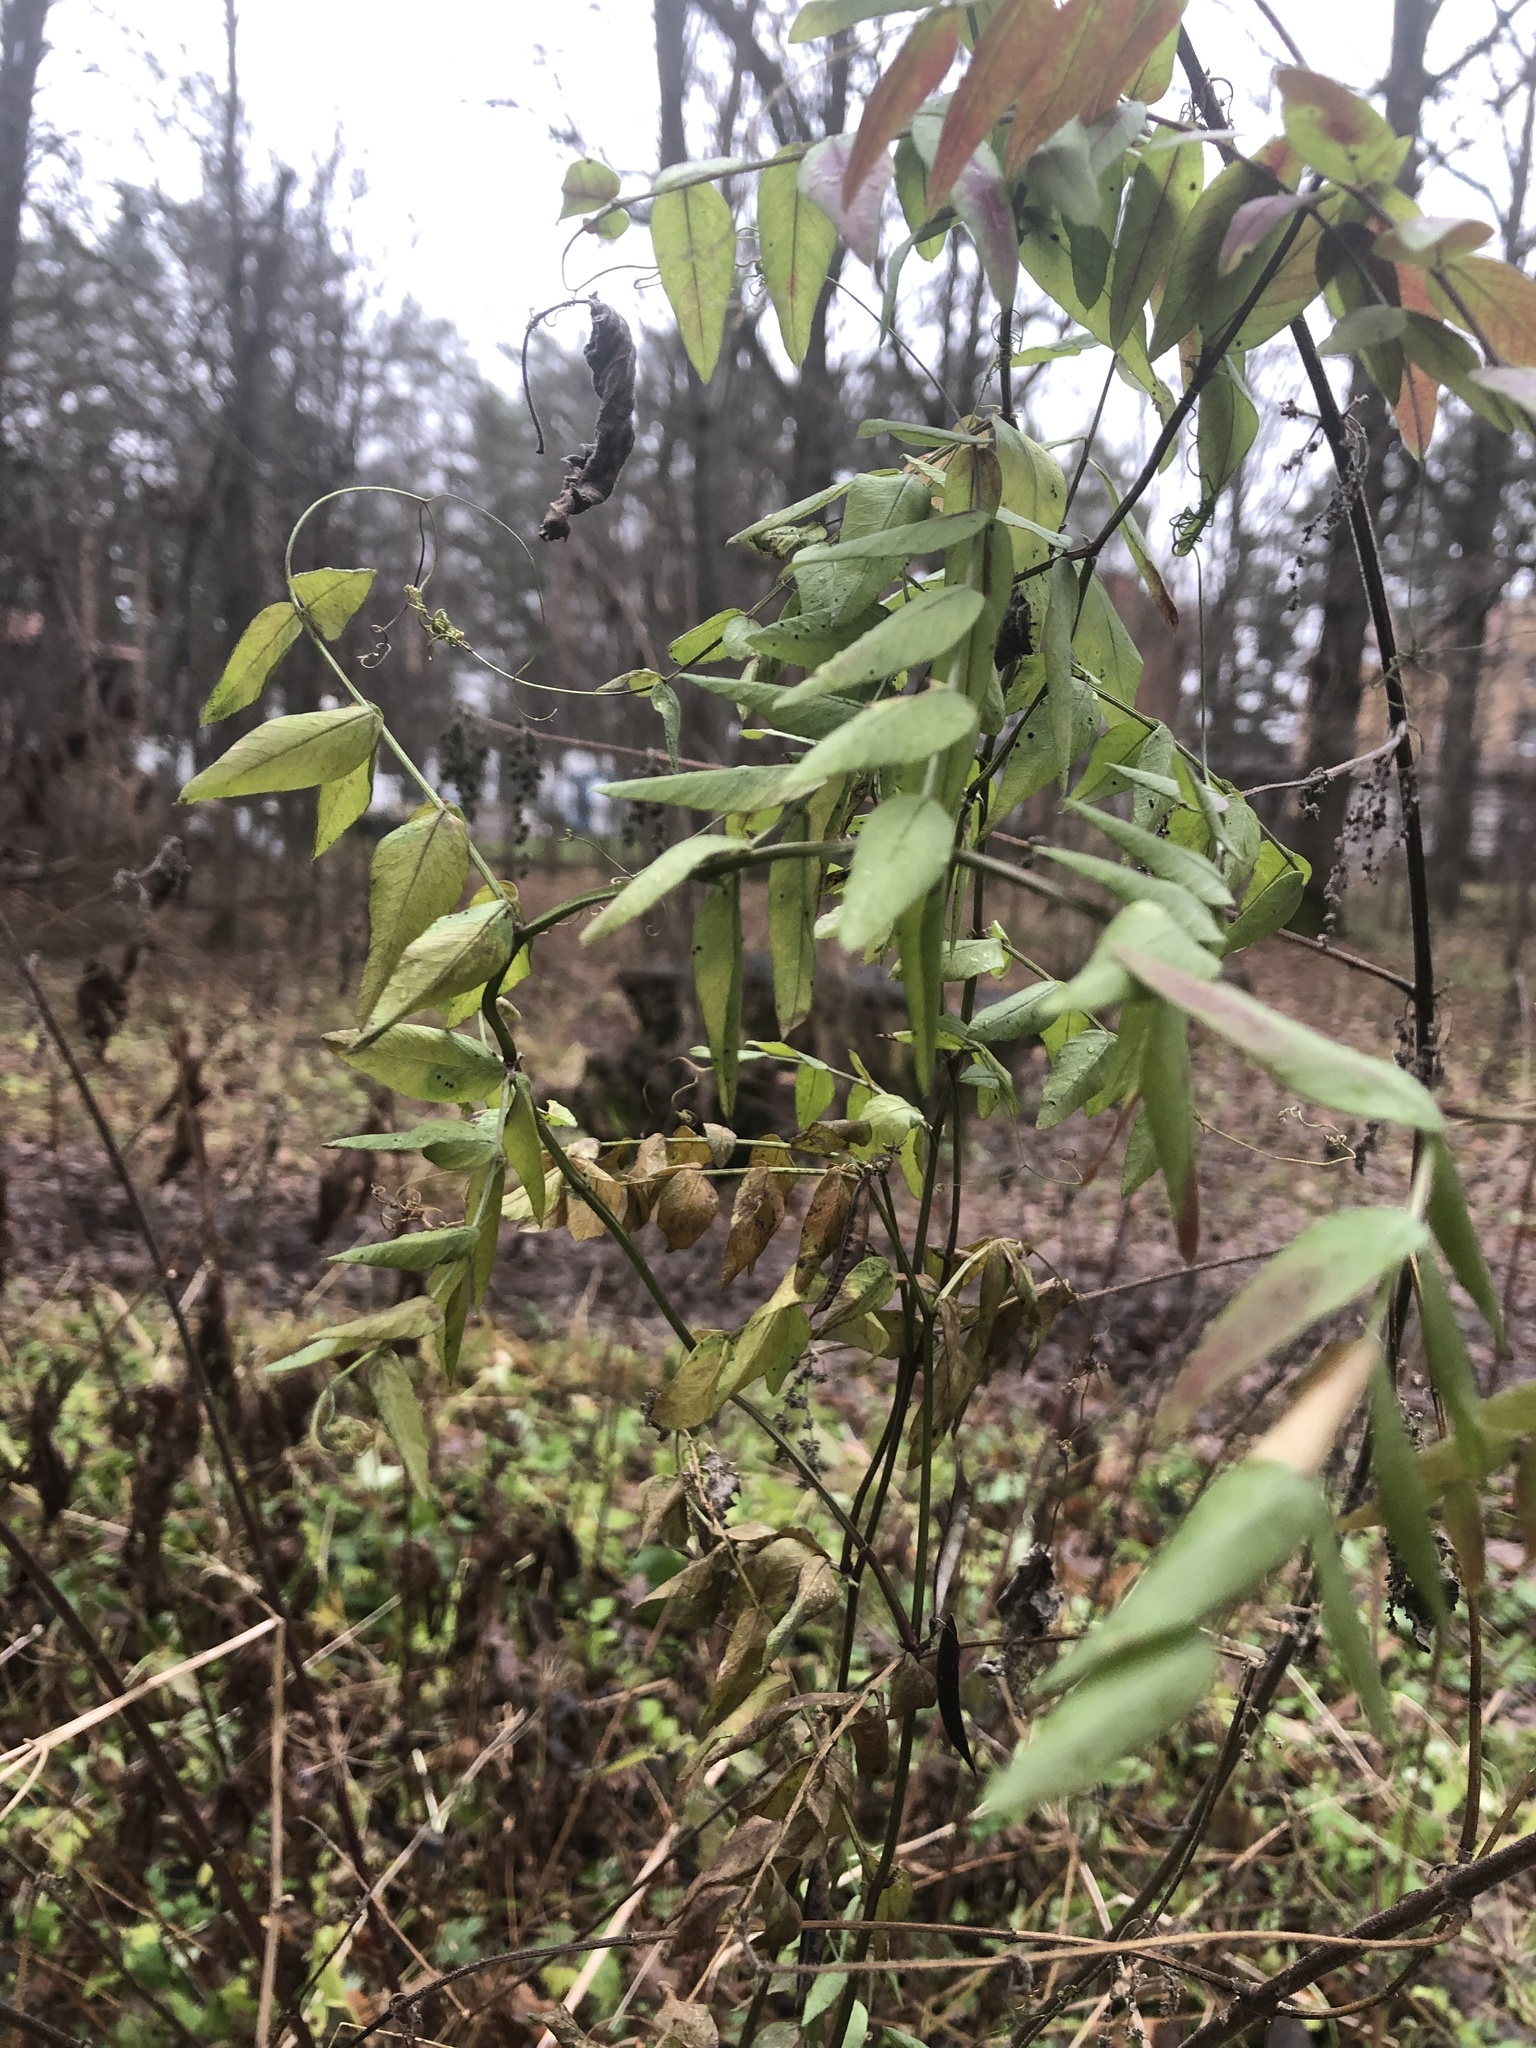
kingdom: Plantae
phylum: Tracheophyta
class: Magnoliopsida
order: Fabales
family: Fabaceae
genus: Vicia
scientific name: Vicia sepium
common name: Bush vetch
